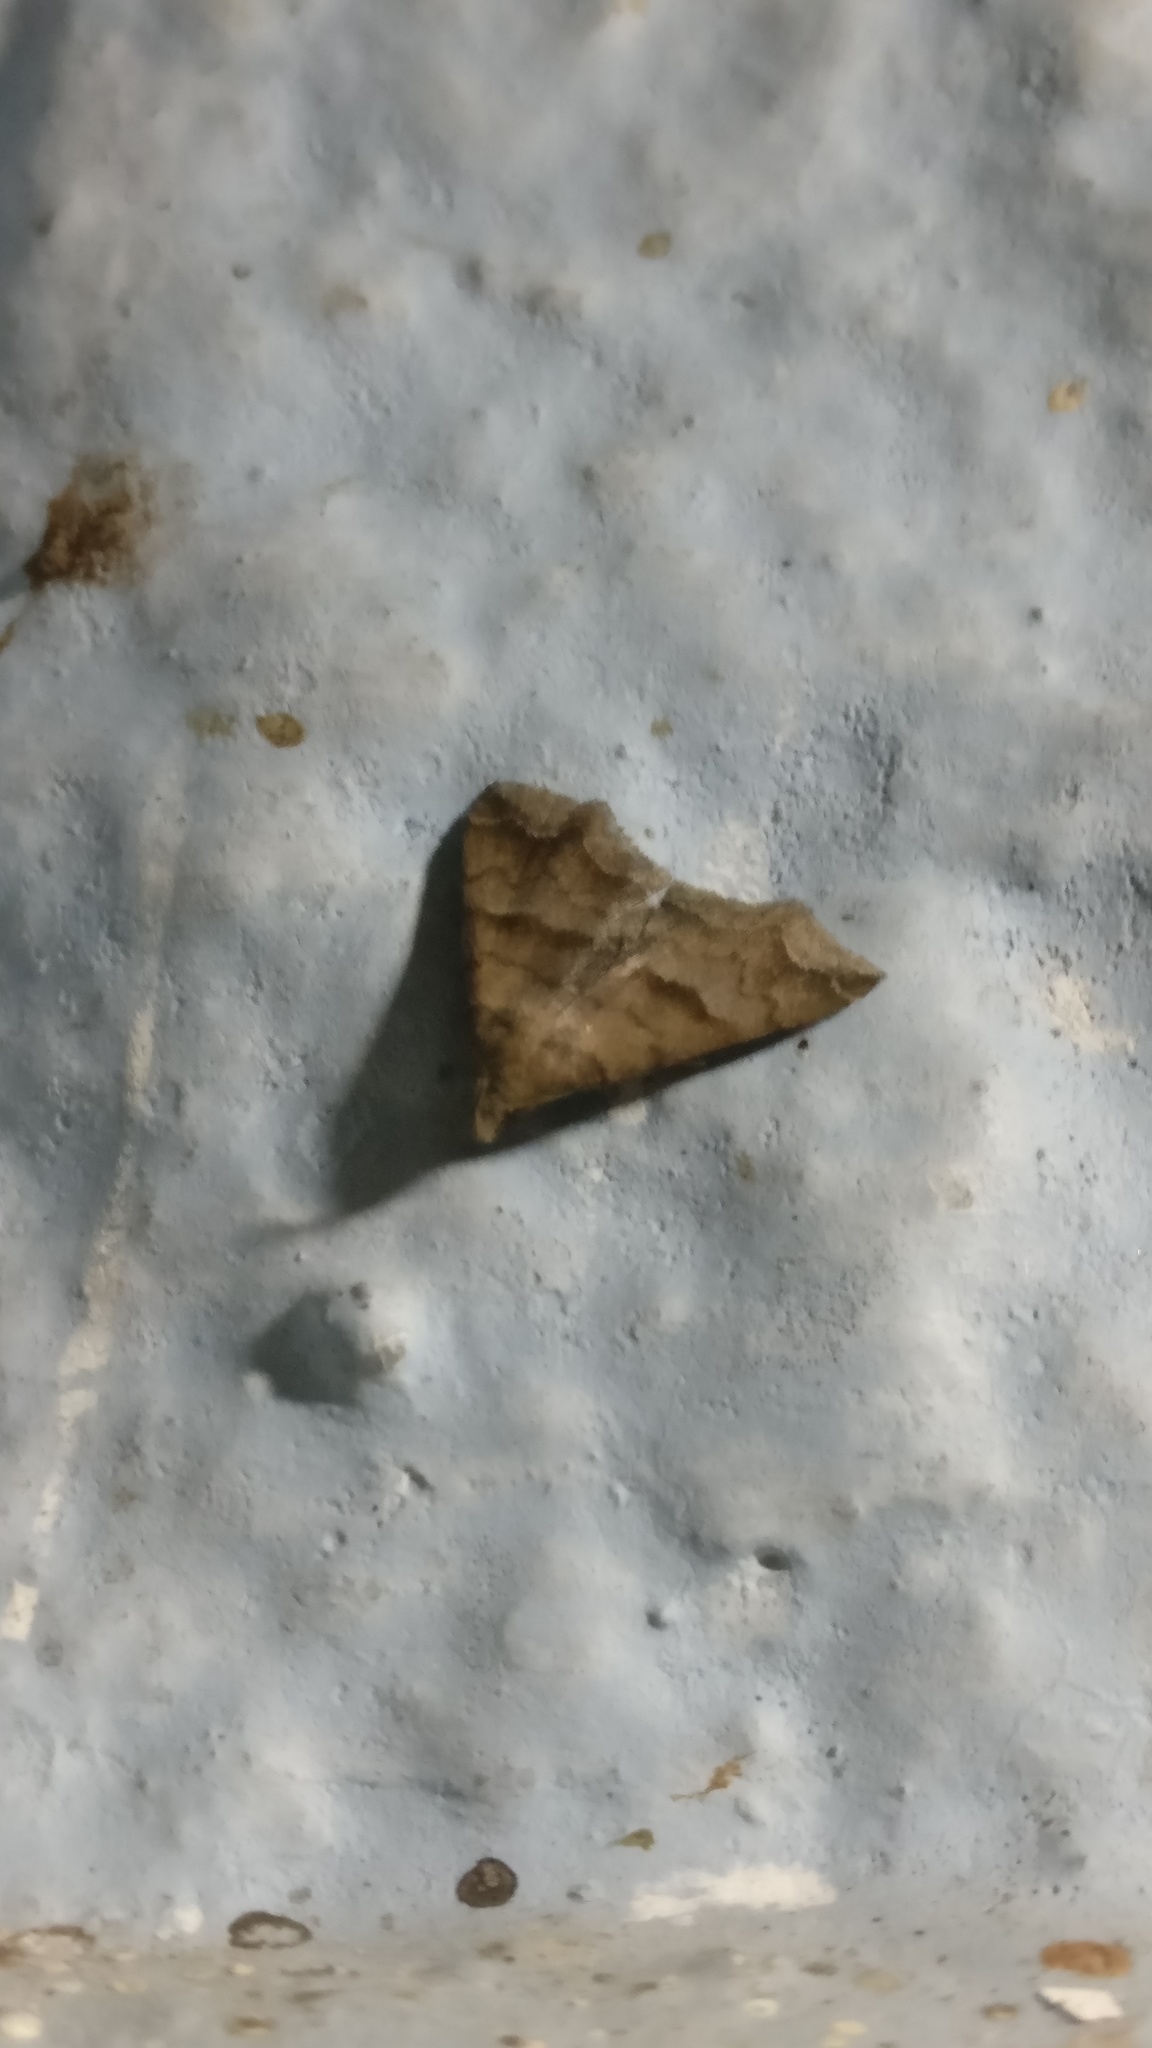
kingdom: Animalia
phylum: Arthropoda
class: Insecta
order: Lepidoptera
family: Erebidae
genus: Polypogon
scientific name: Polypogon Hipoepa fractalis
